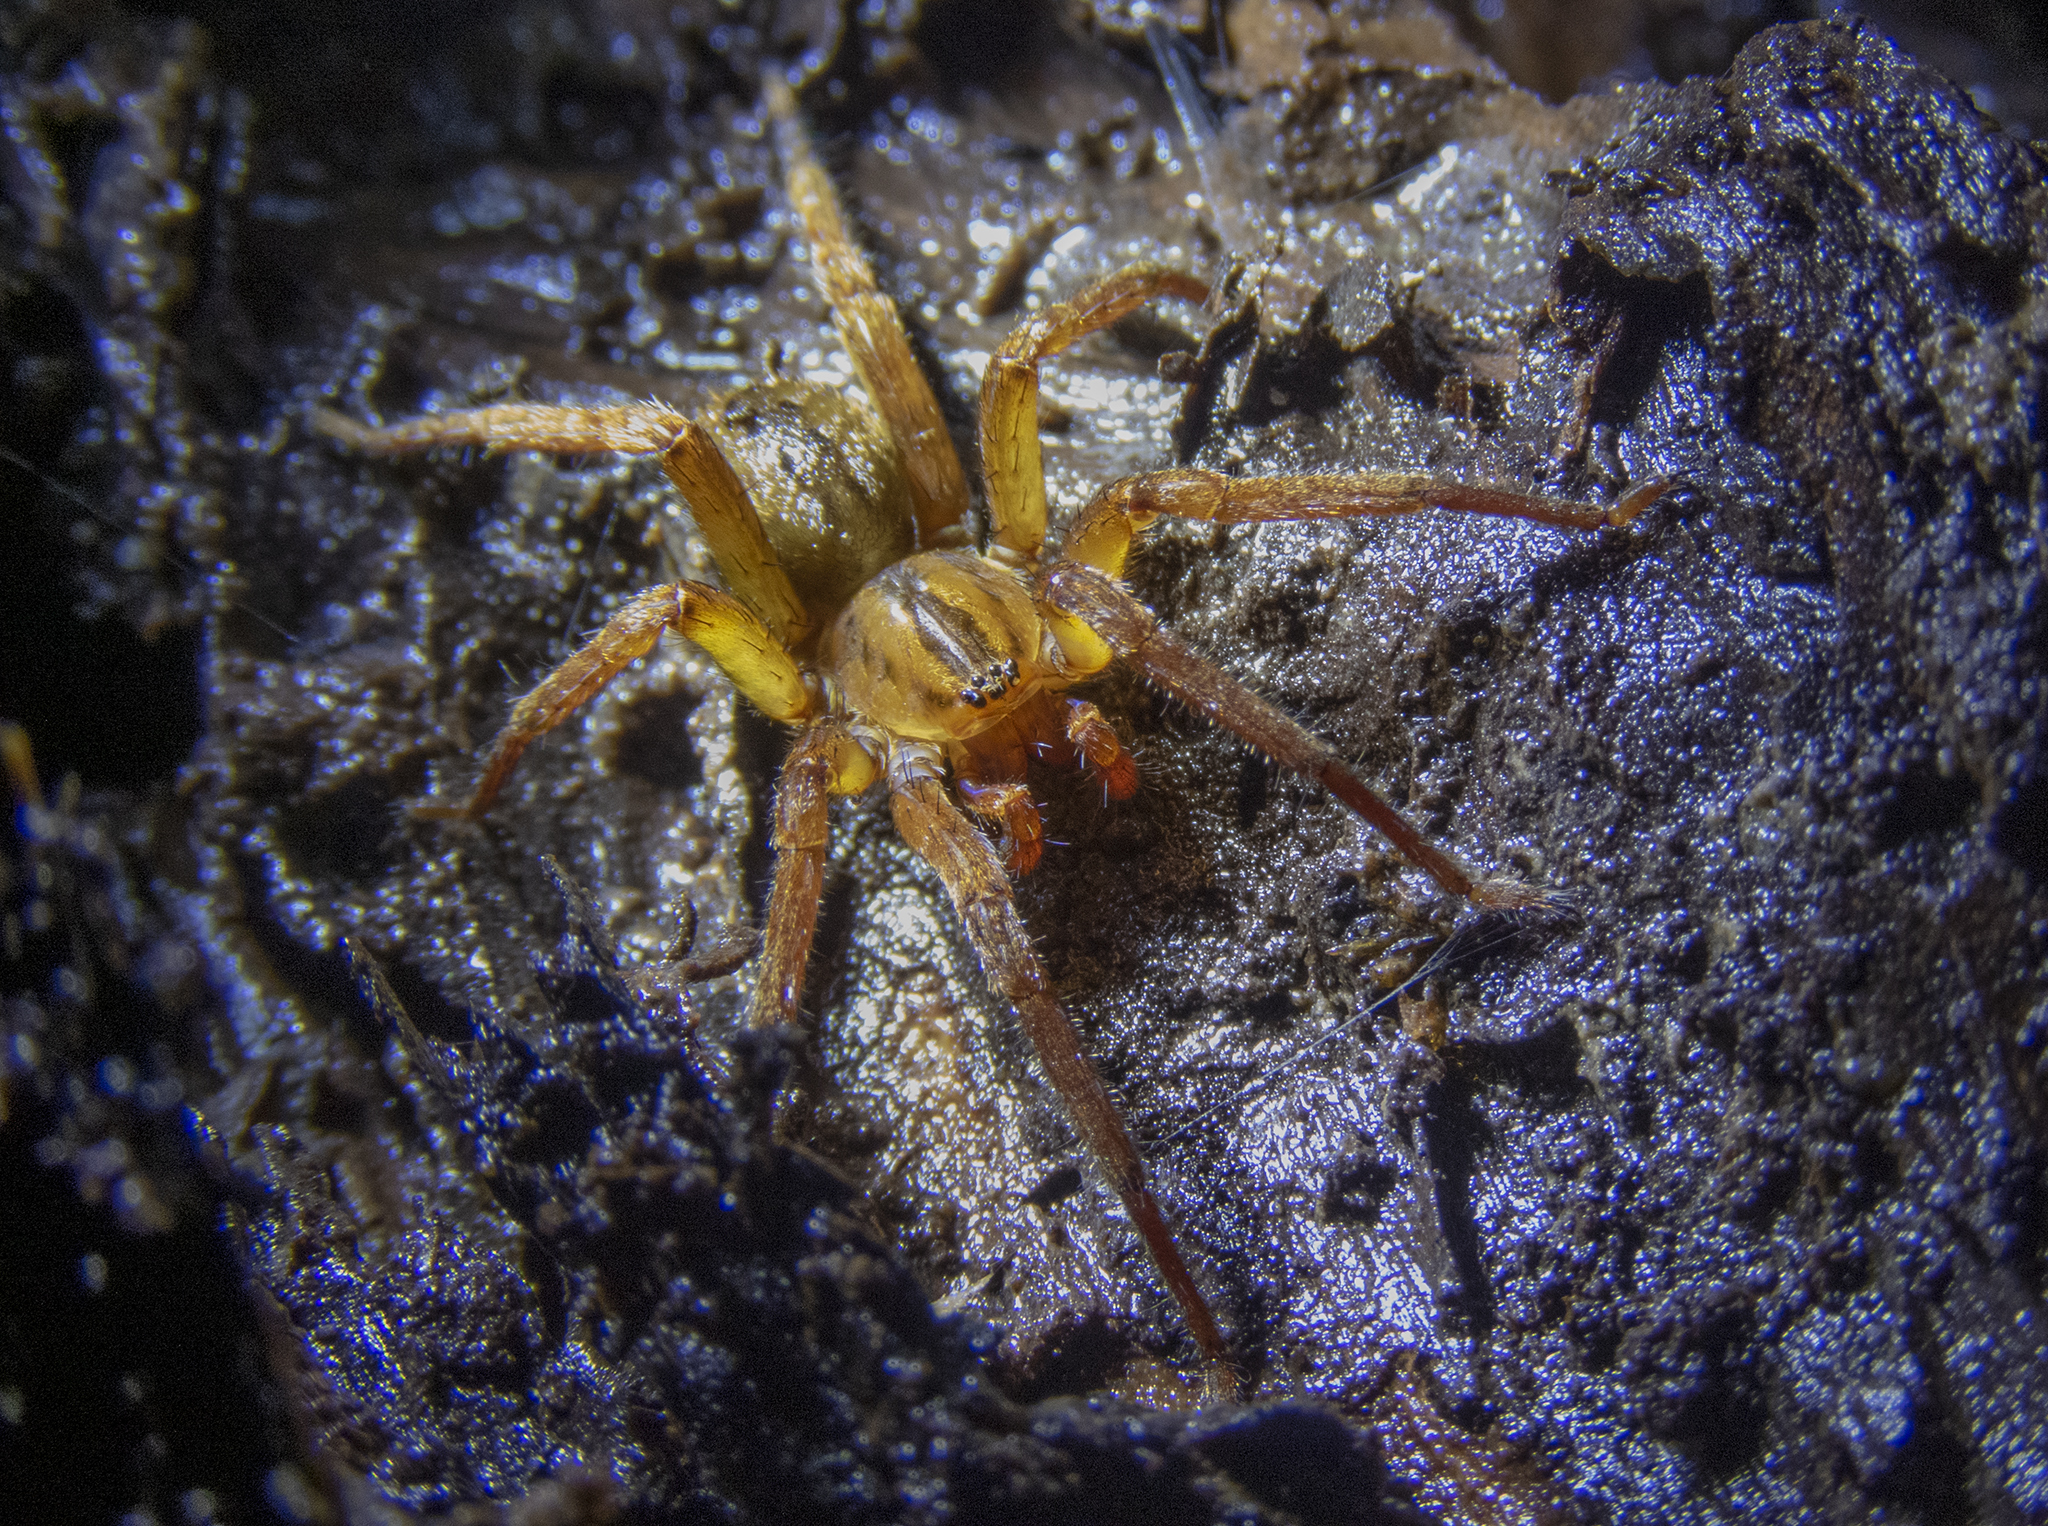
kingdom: Animalia
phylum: Arthropoda
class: Arachnida
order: Araneae
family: Gradungulidae
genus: Gradungula
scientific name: Gradungula sorenseni
